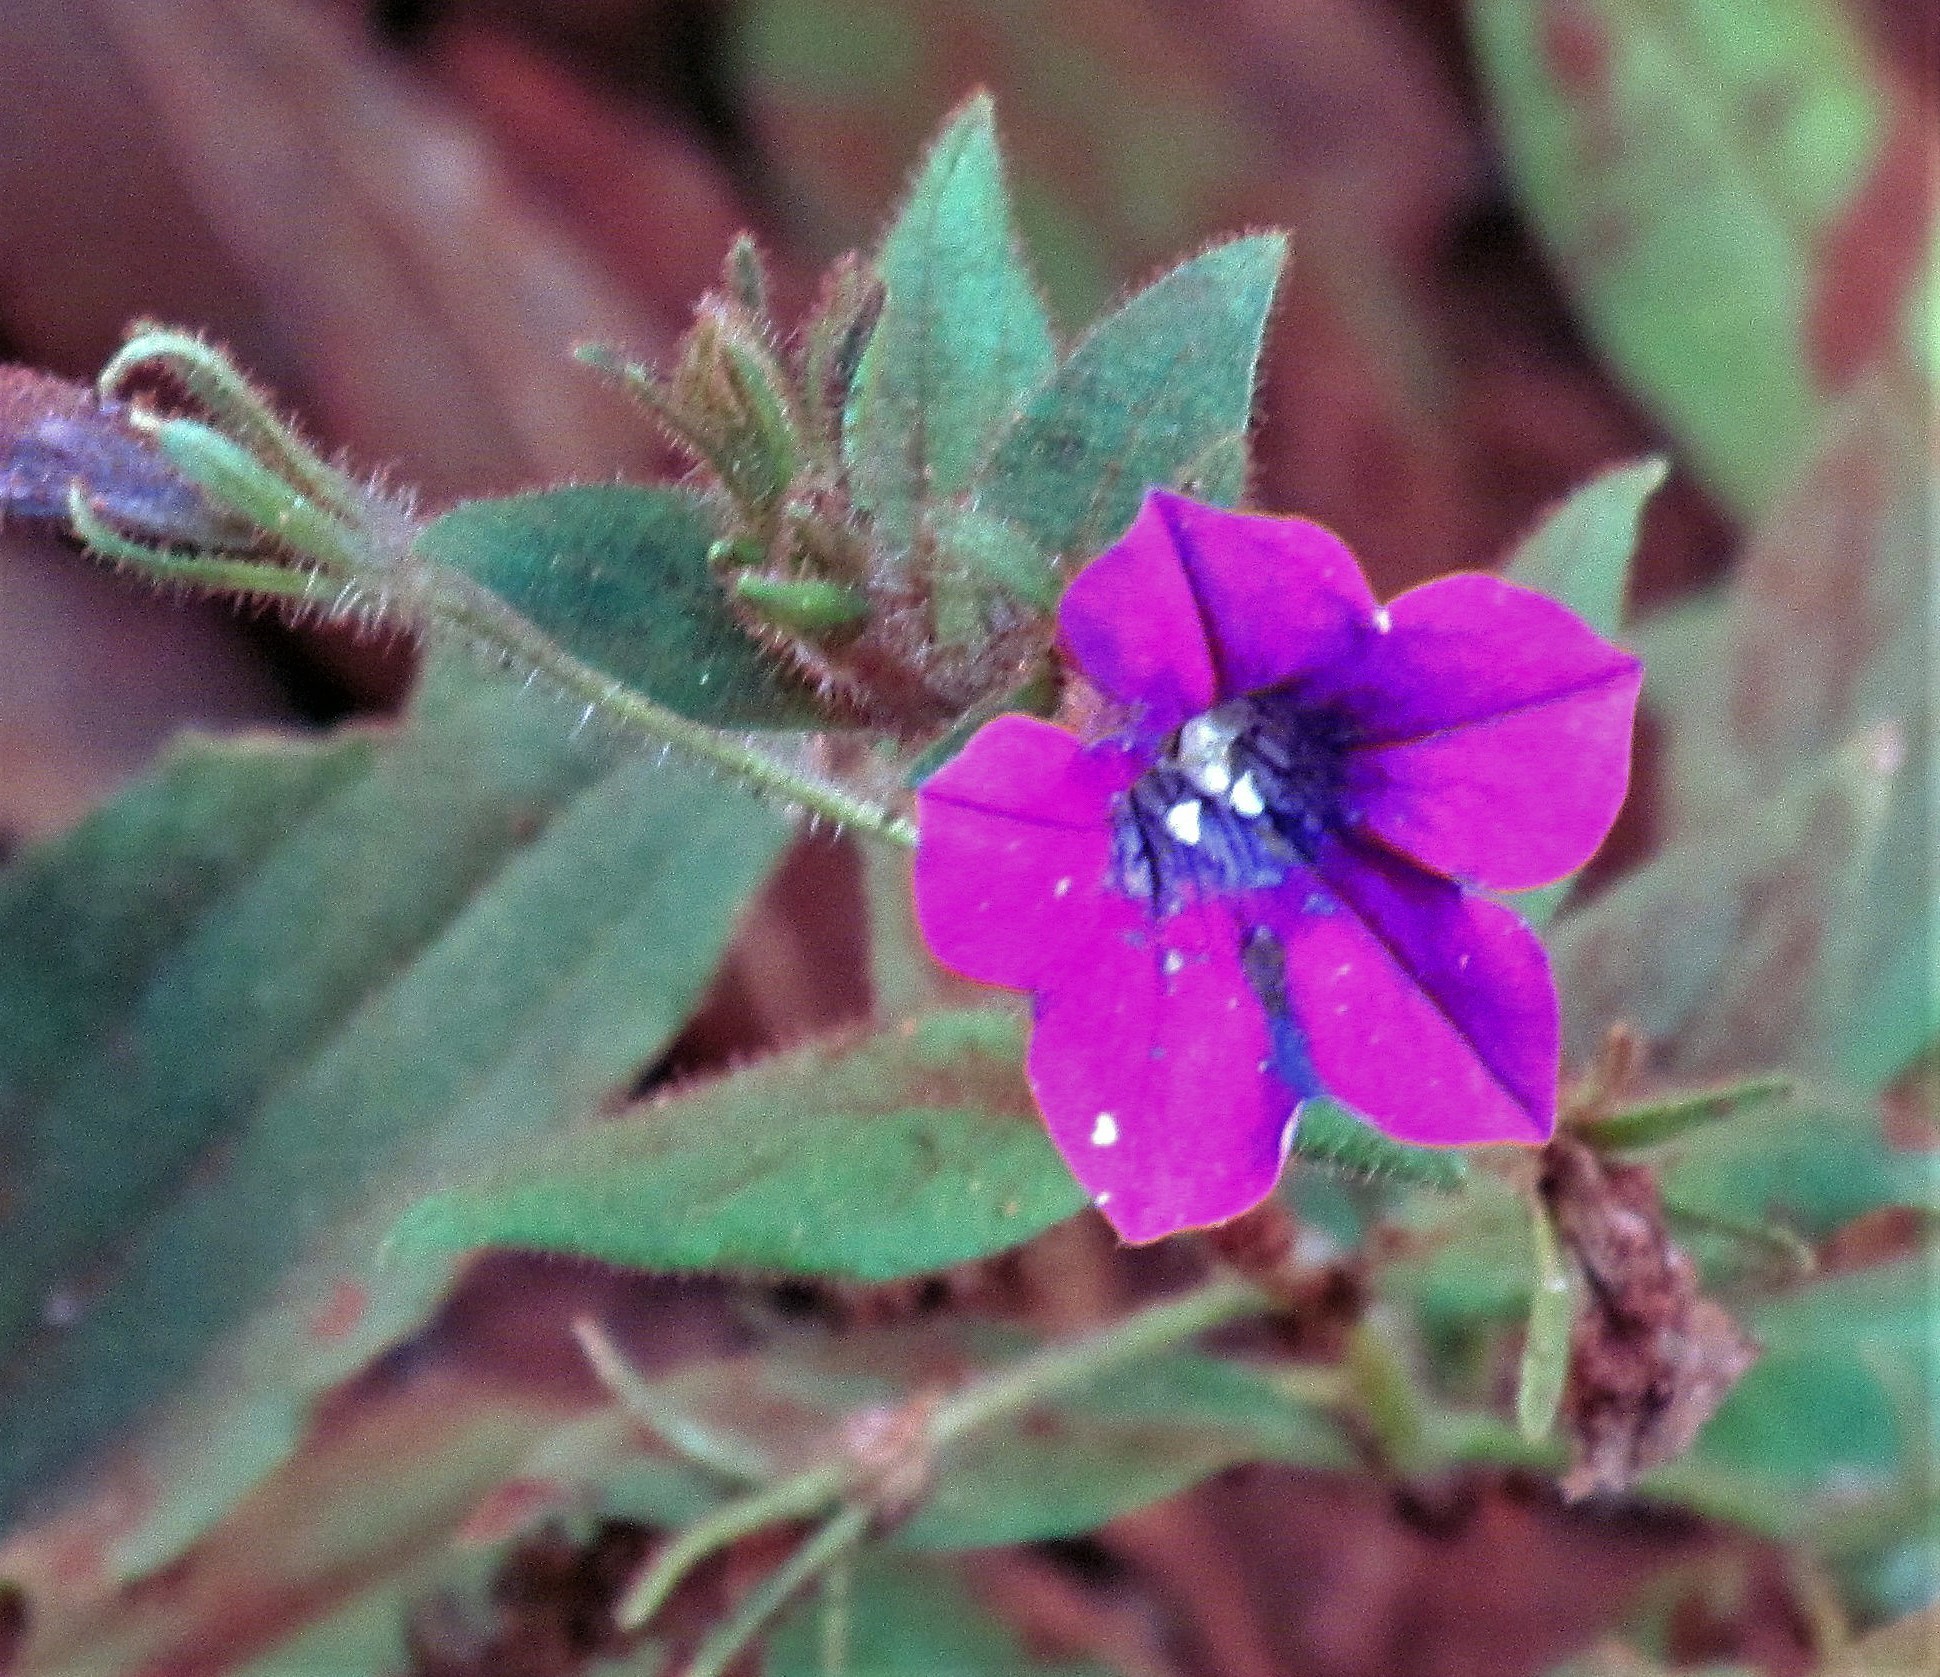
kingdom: Plantae
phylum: Tracheophyta
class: Magnoliopsida
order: Solanales
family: Solanaceae
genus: Petunia
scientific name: Petunia interior
